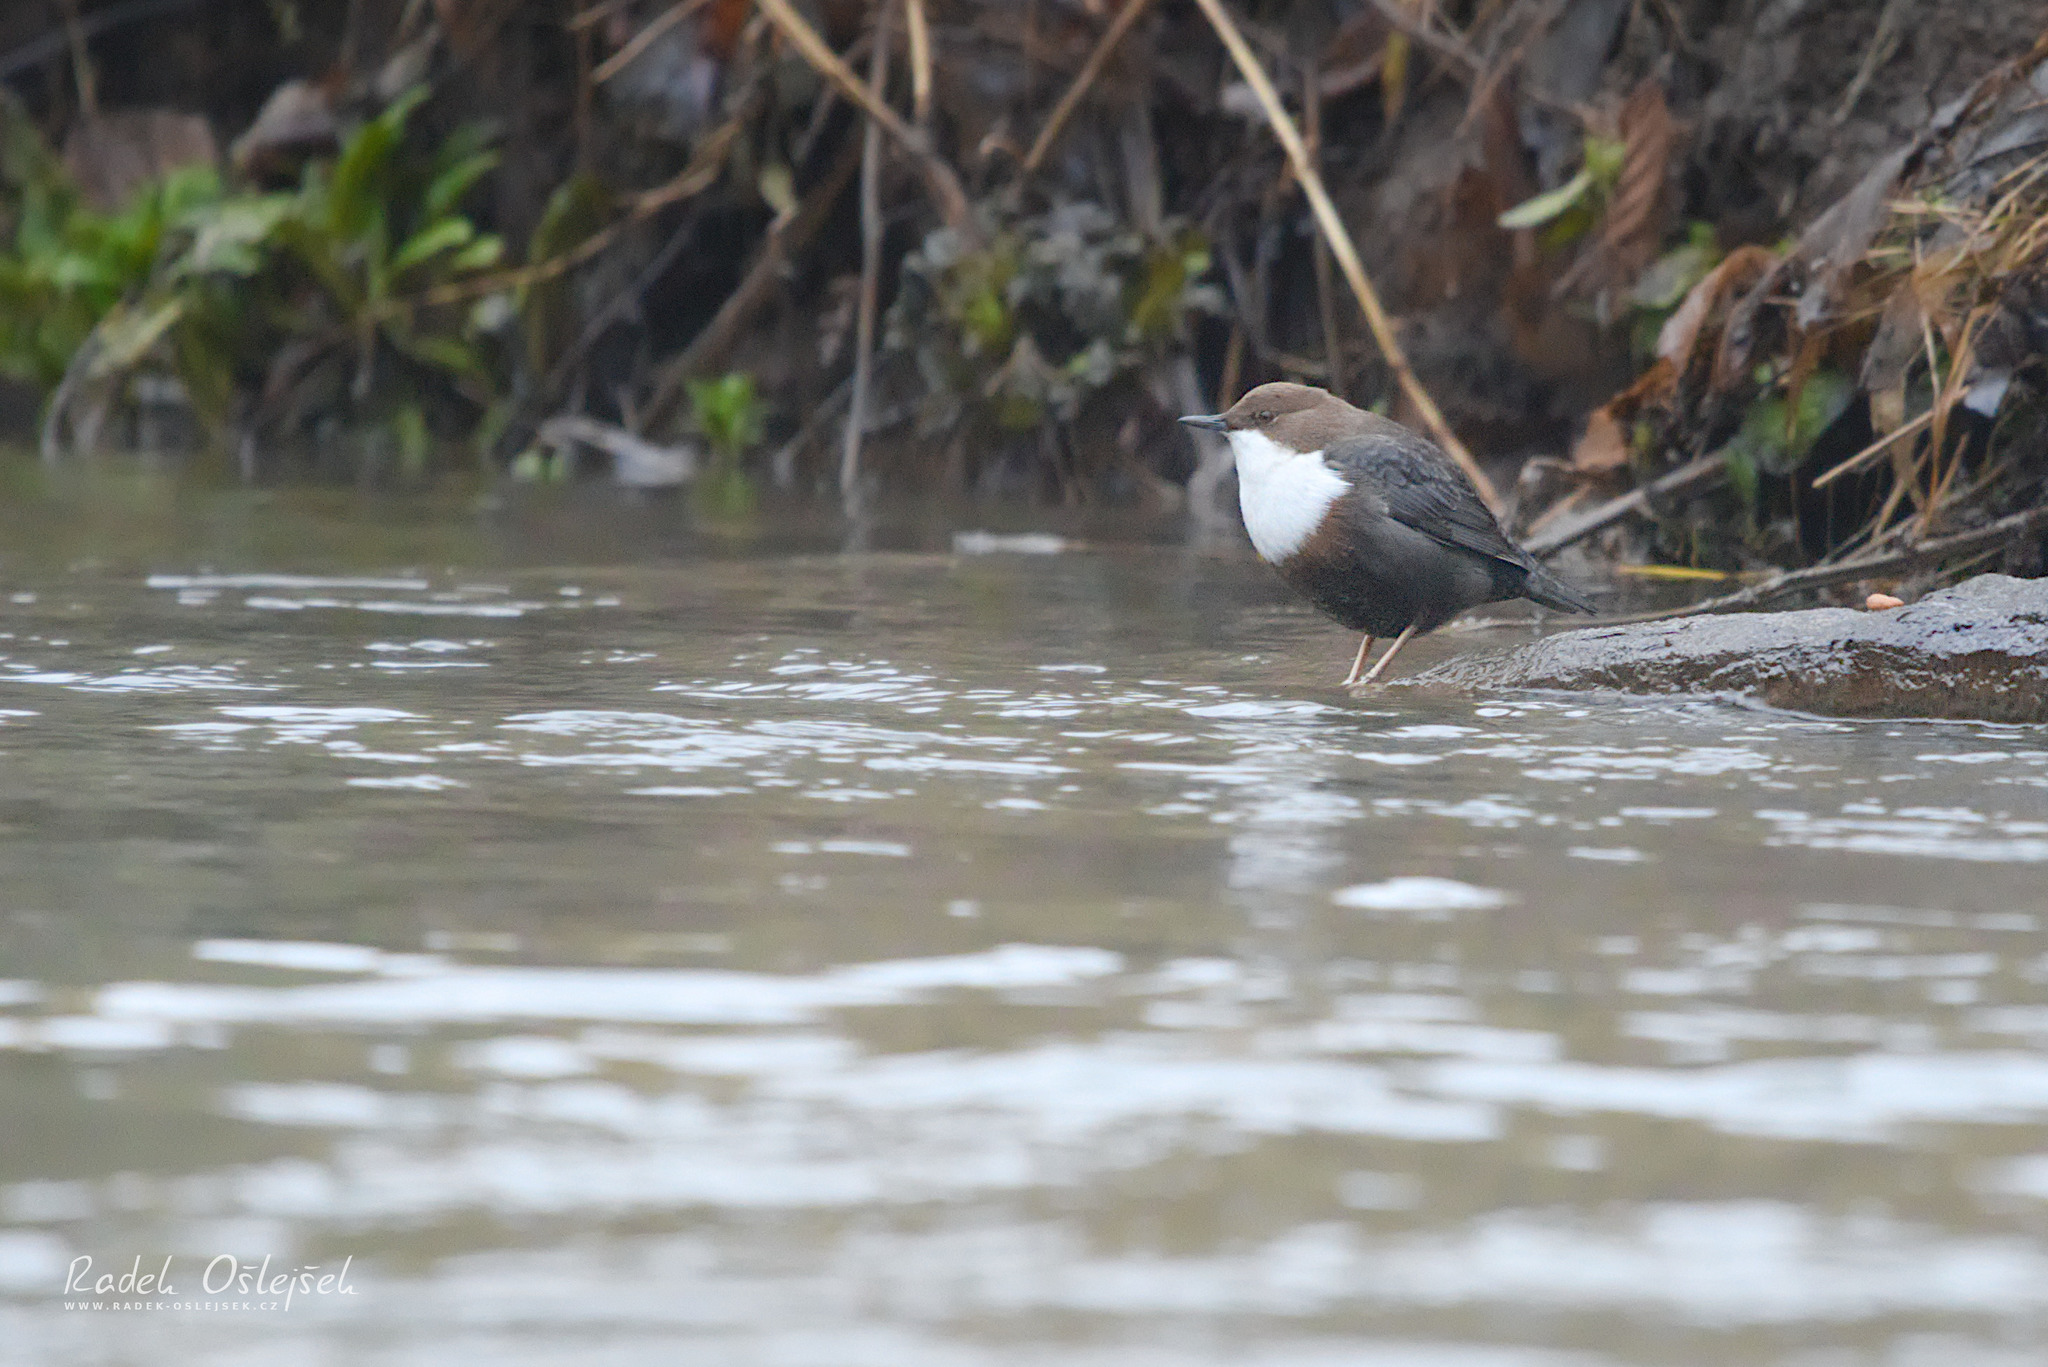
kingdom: Animalia
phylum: Chordata
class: Aves
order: Passeriformes
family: Cinclidae
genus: Cinclus
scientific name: Cinclus cinclus
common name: White-throated dipper
